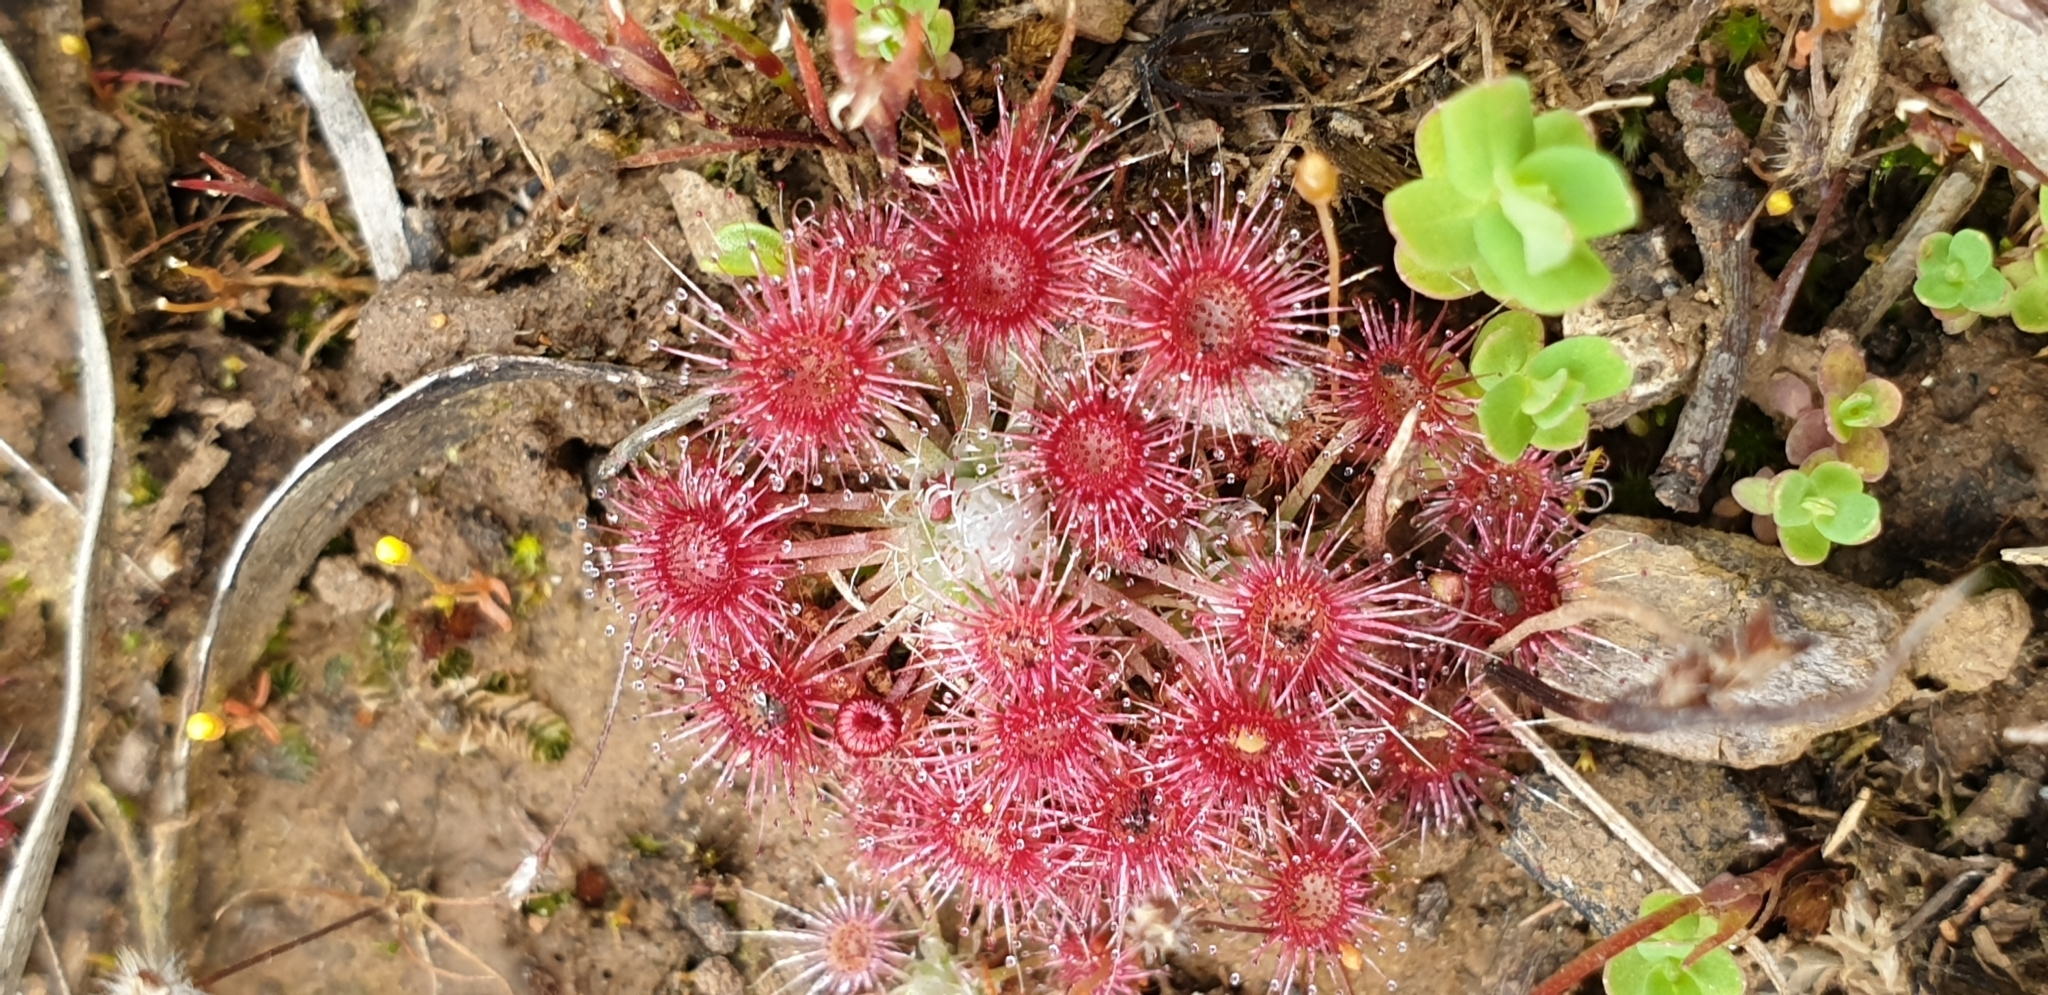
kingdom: Plantae
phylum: Tracheophyta
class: Magnoliopsida
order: Caryophyllales
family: Droseraceae
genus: Drosera
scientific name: Drosera pygmaea
